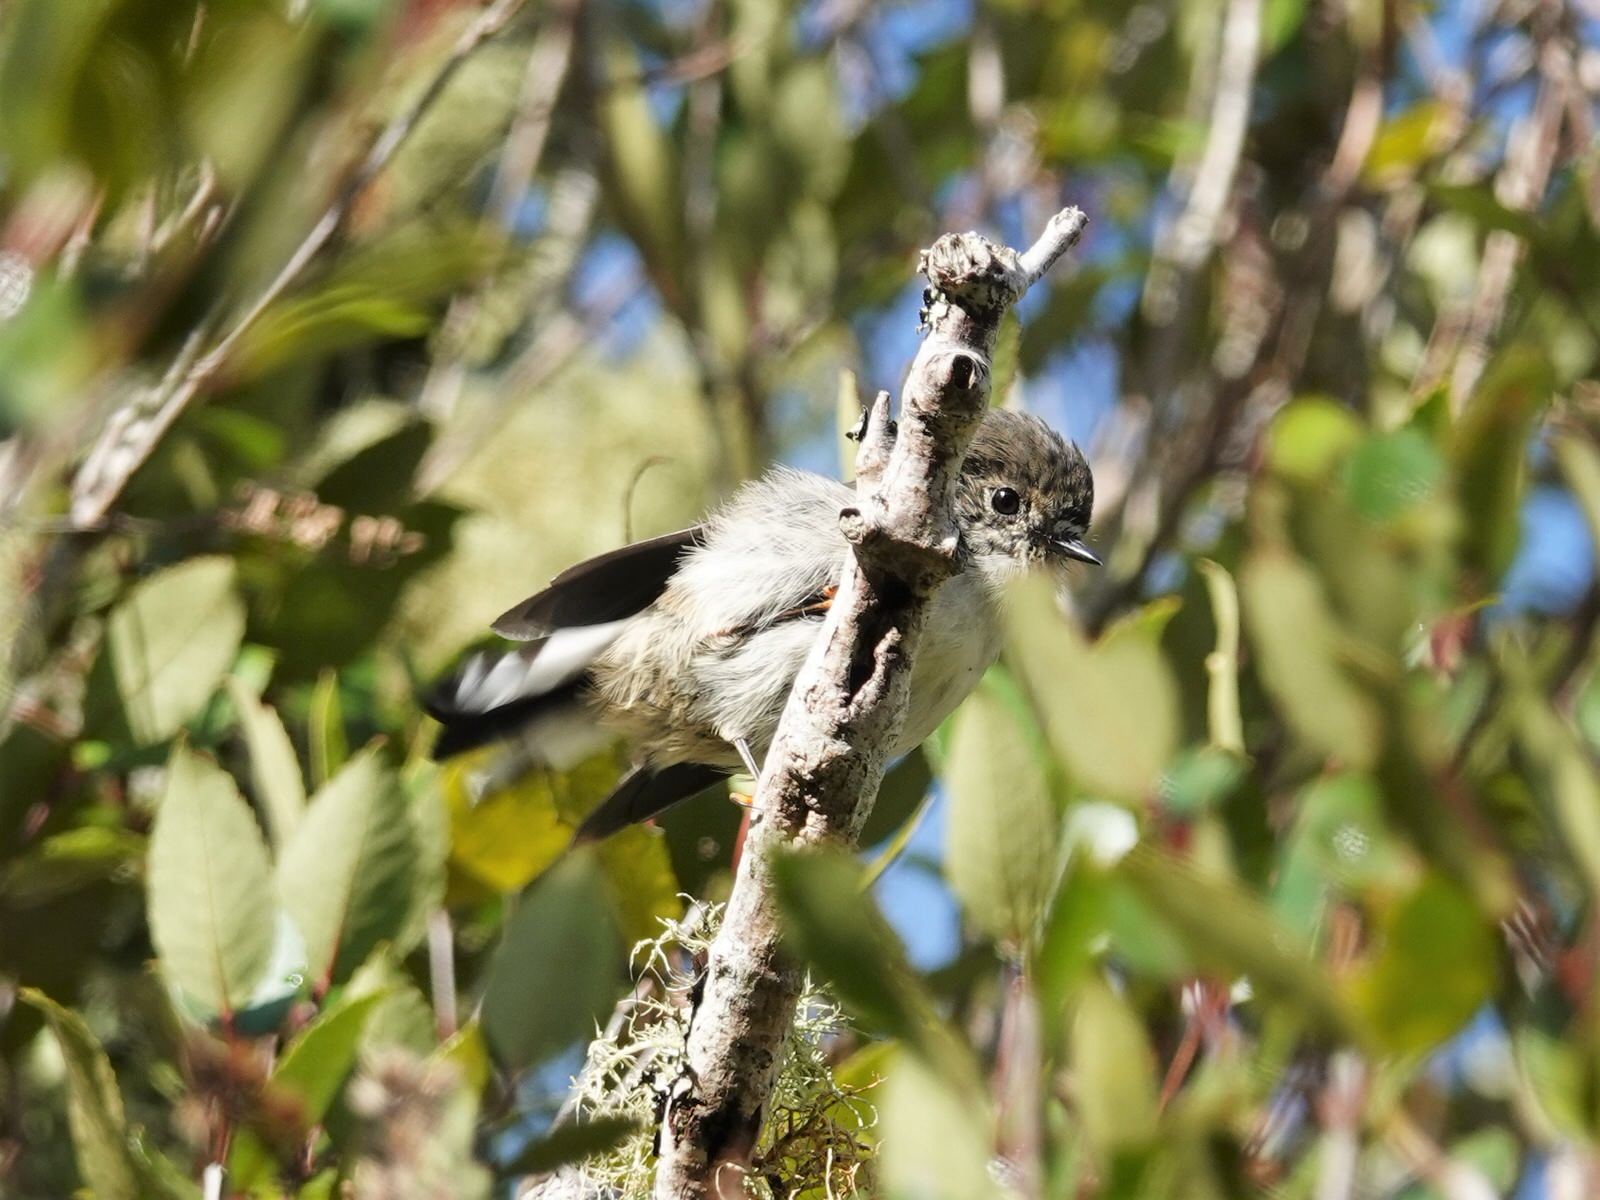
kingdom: Animalia
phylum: Chordata
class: Aves
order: Passeriformes
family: Petroicidae
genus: Petroica
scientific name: Petroica macrocephala
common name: Tomtit
